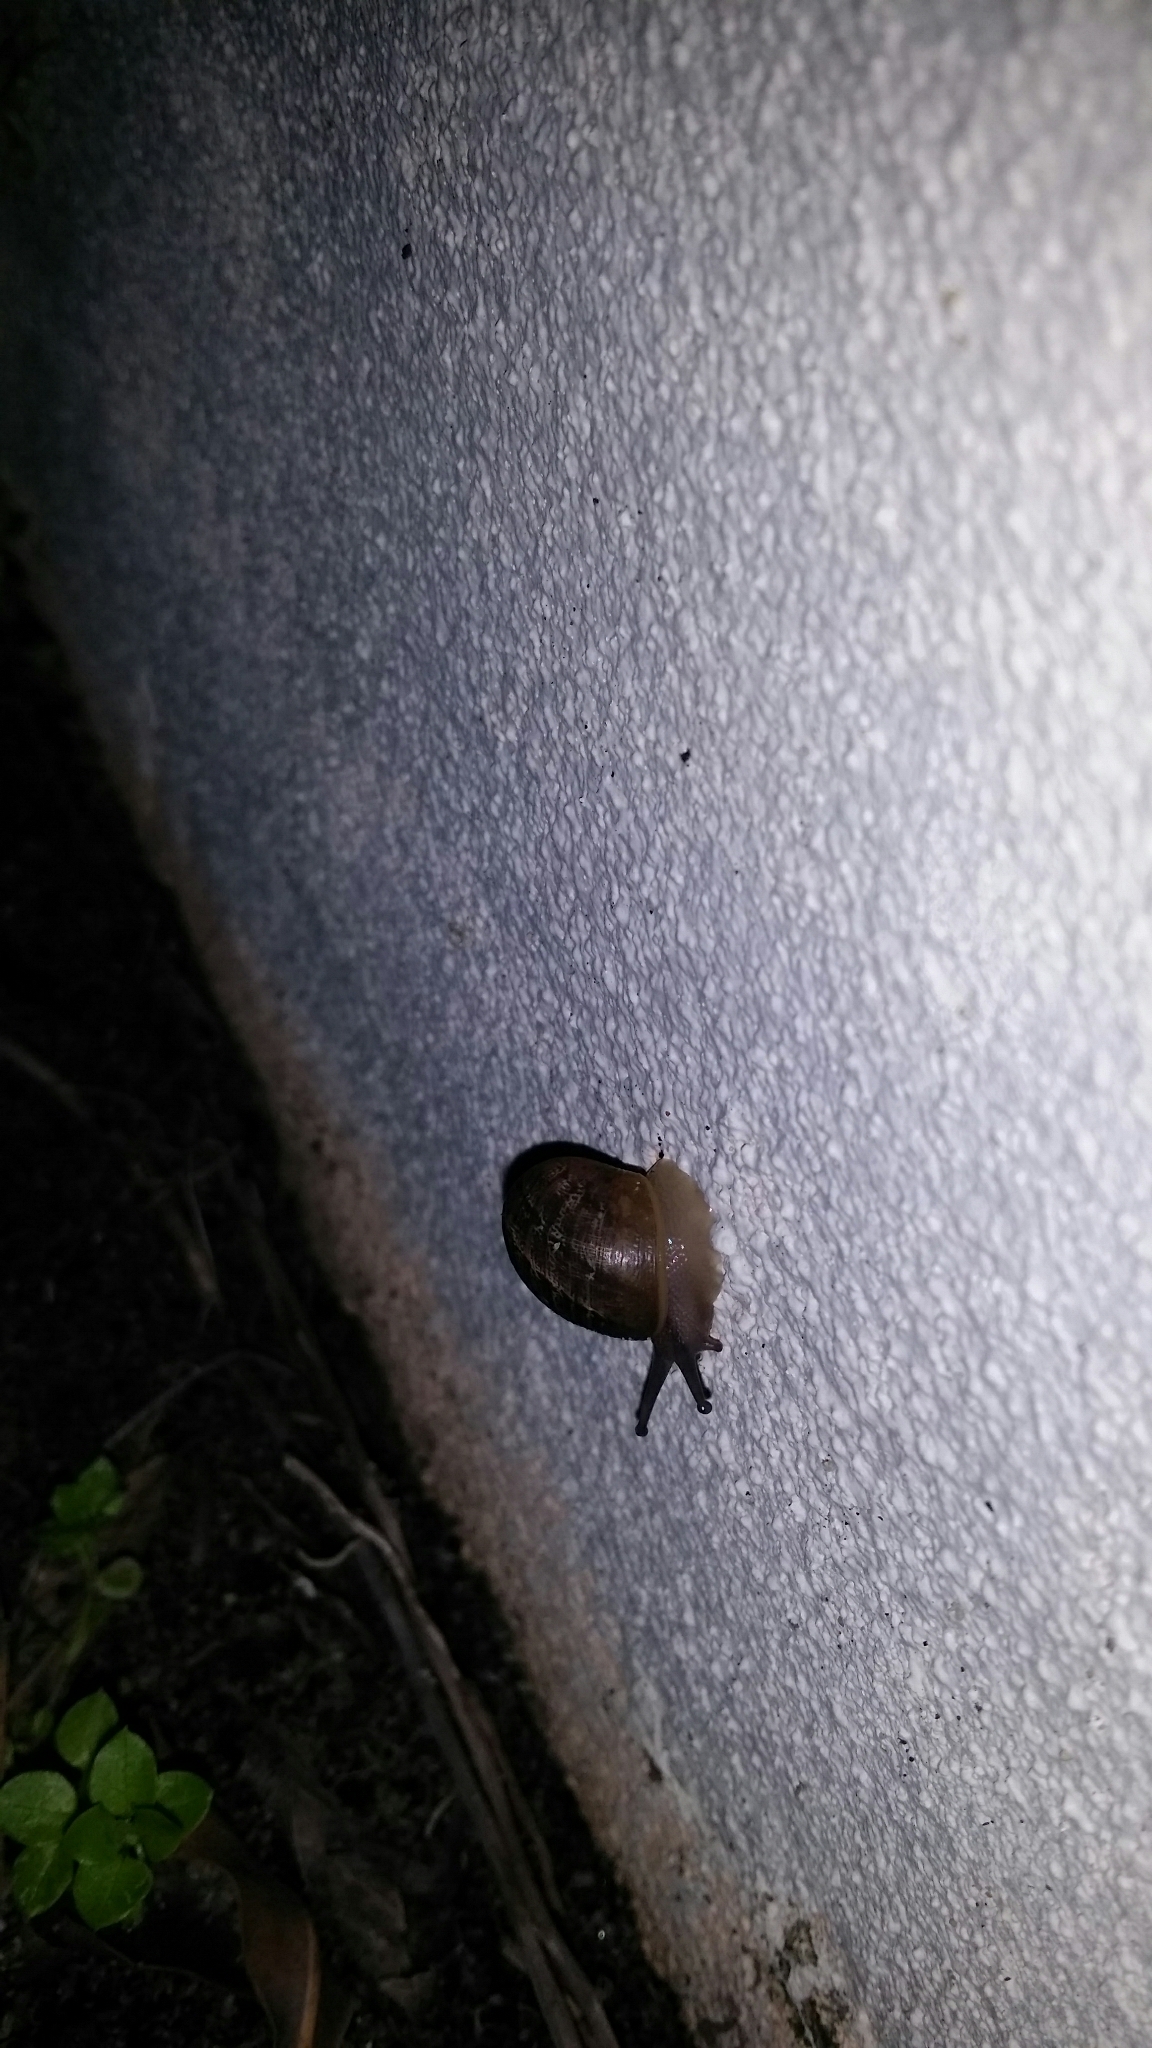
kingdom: Animalia
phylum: Mollusca
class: Gastropoda
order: Stylommatophora
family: Helicidae
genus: Cornu
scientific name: Cornu aspersum
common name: Brown garden snail
